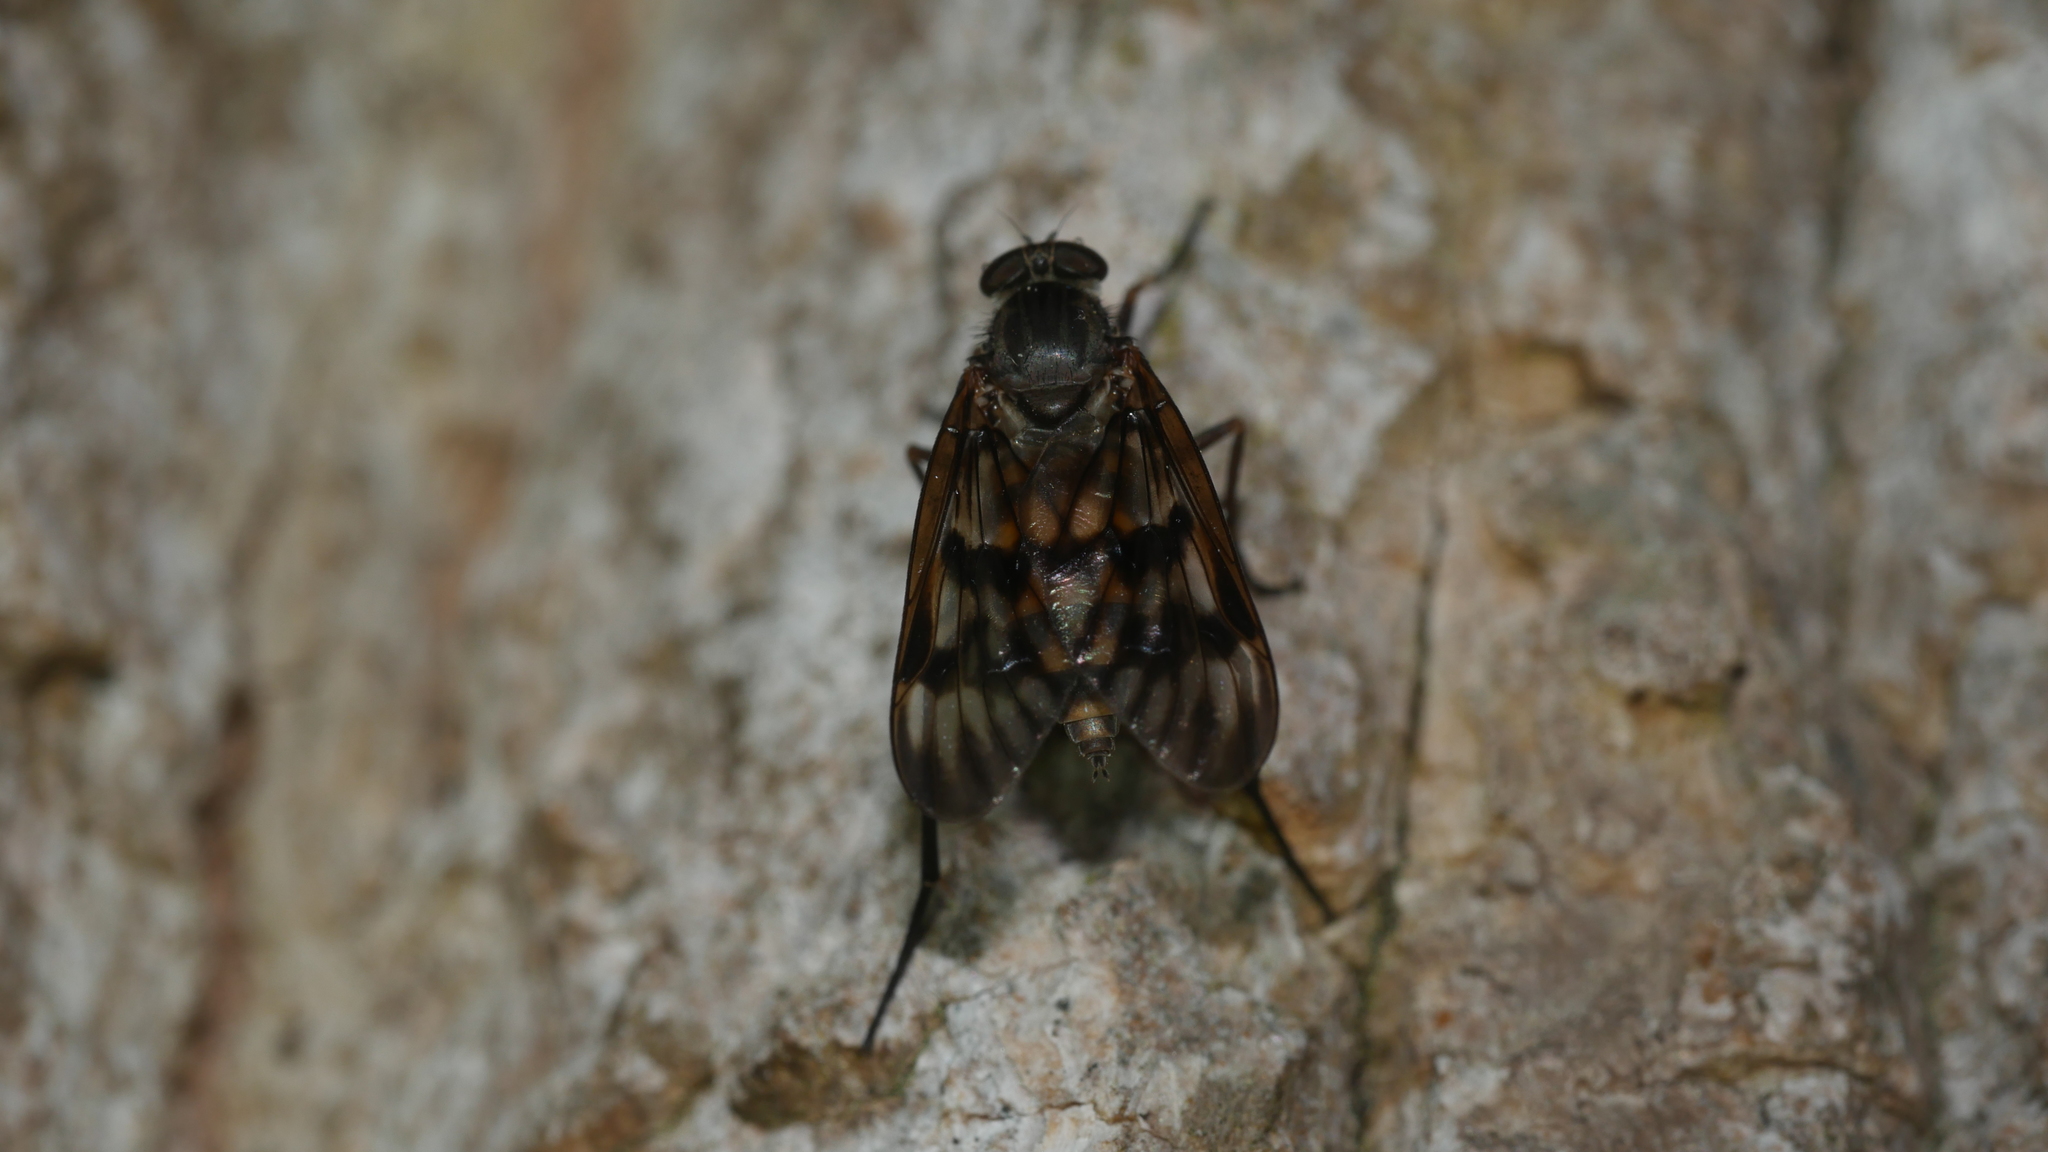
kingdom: Animalia
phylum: Arthropoda
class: Insecta
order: Diptera
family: Rhagionidae
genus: Rhagio
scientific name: Rhagio mystaceus
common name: Common snipe fly
